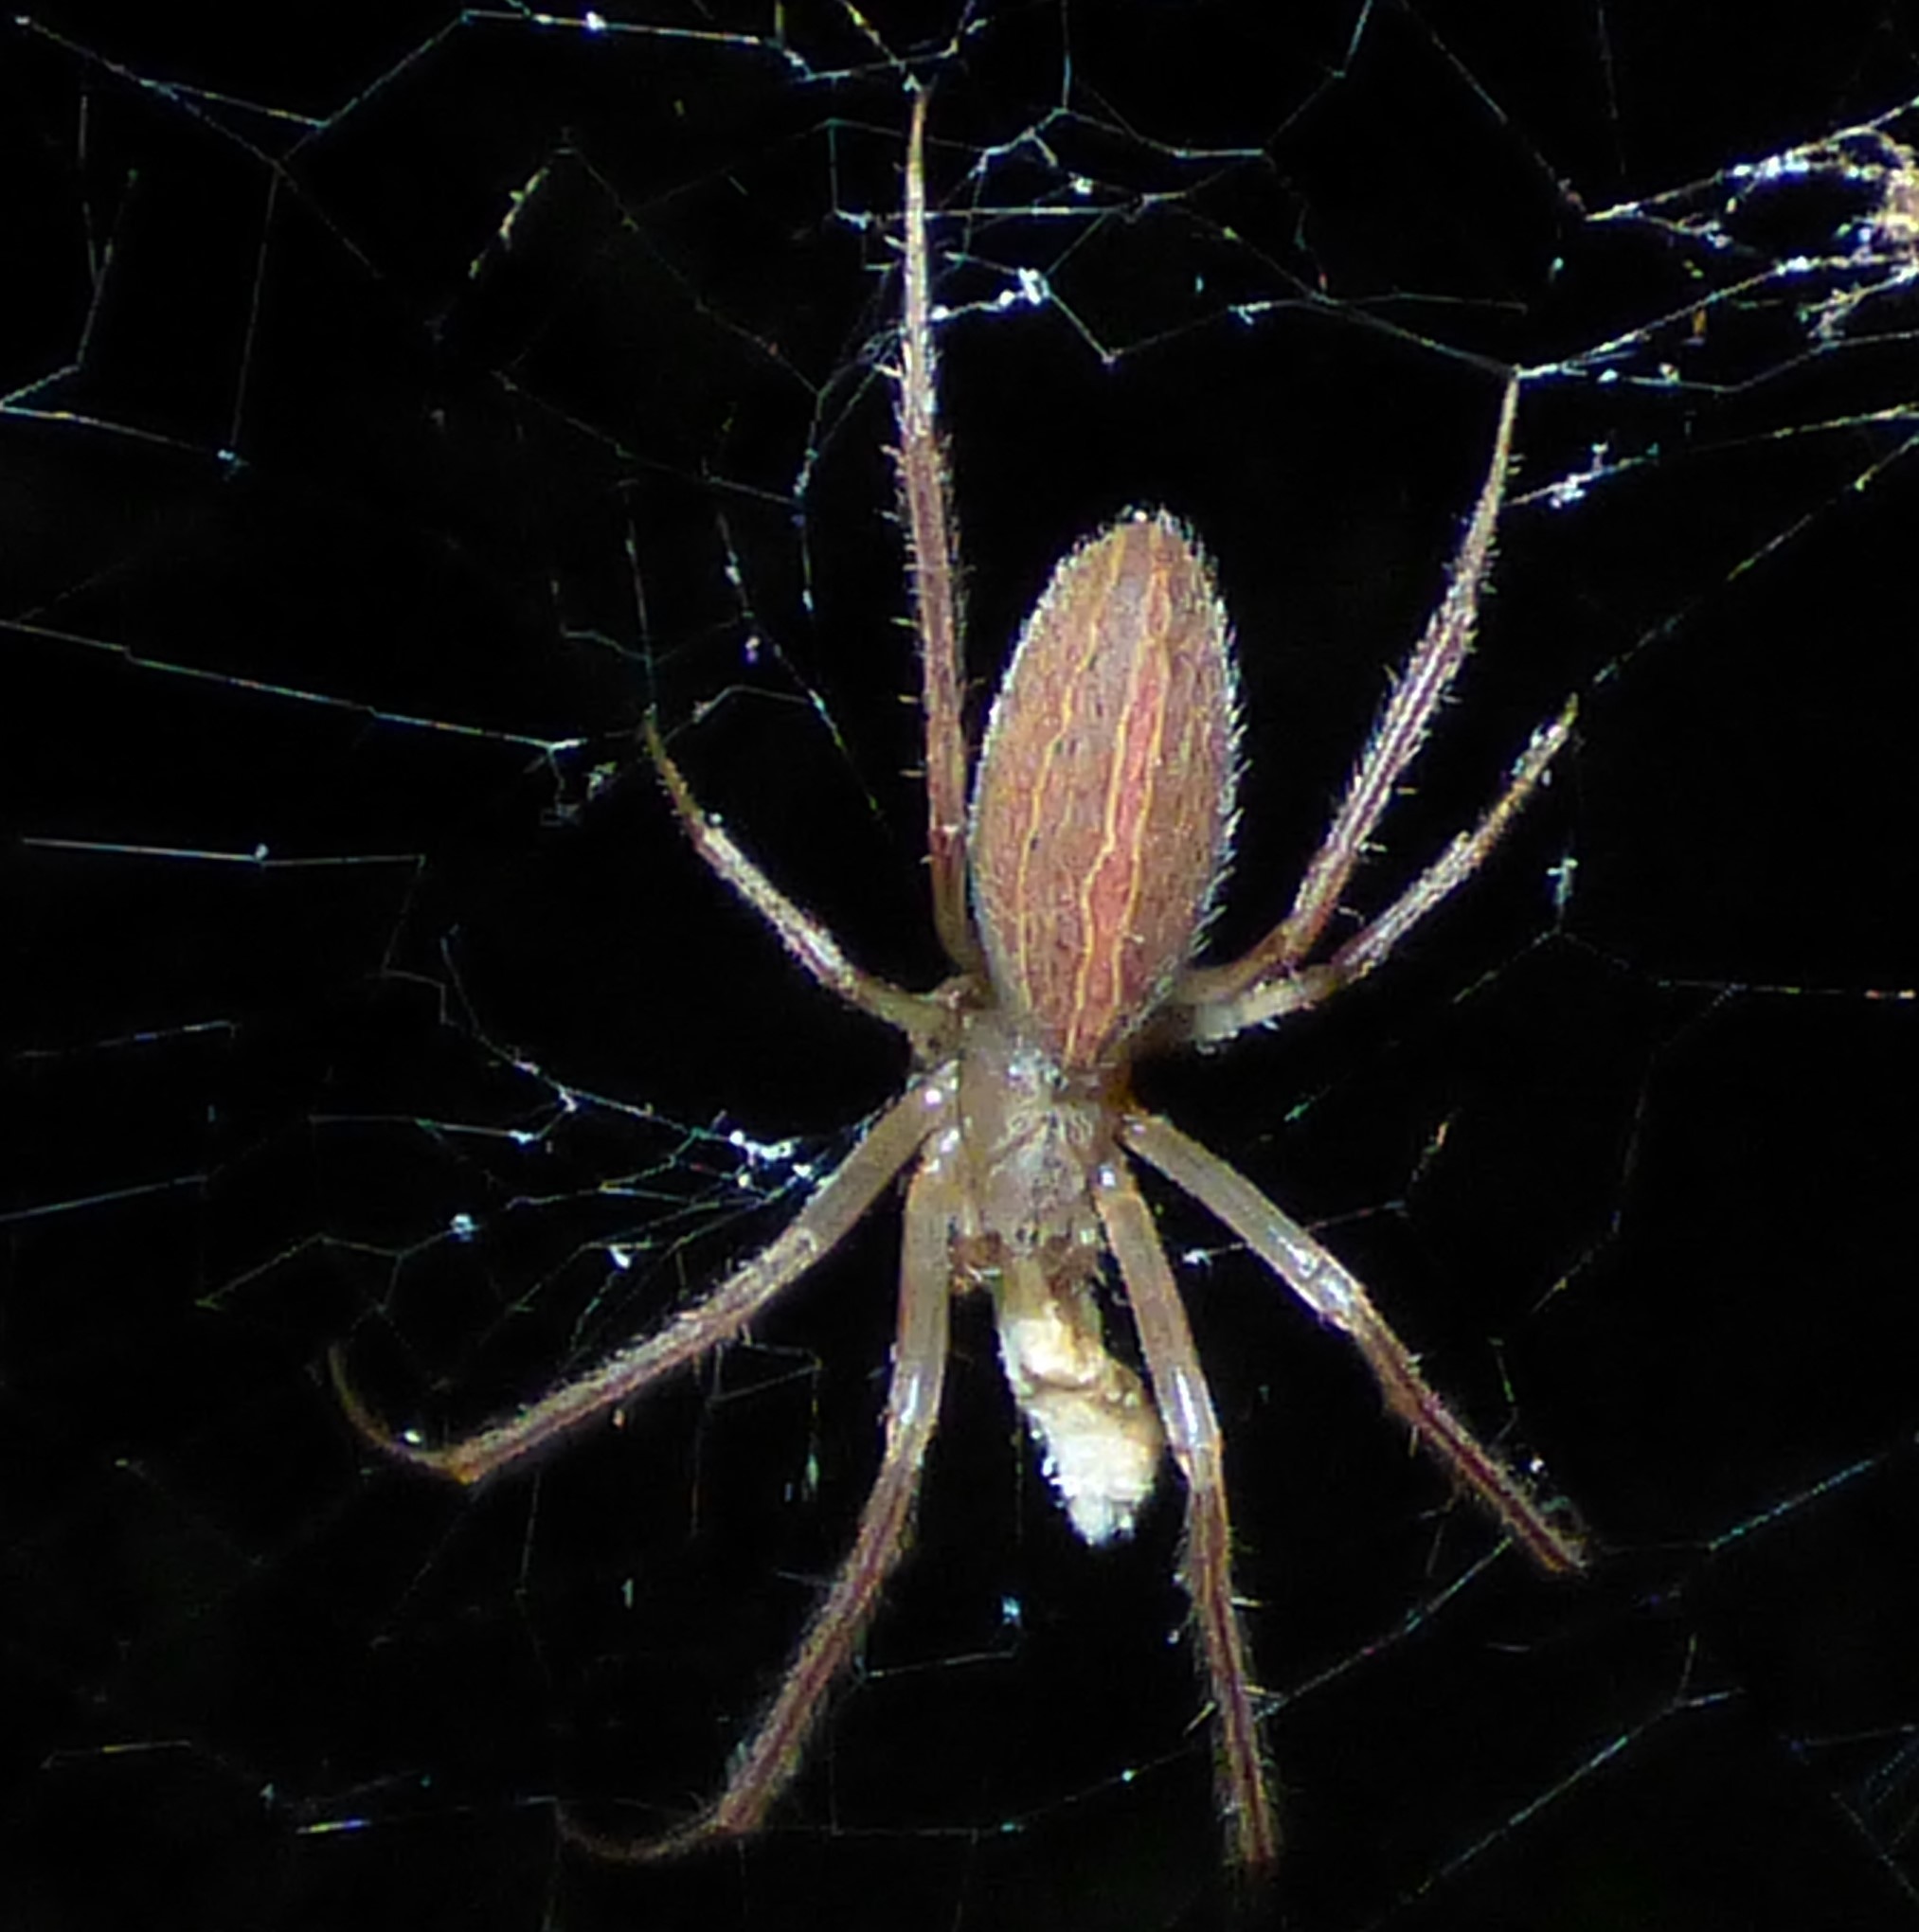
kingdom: Animalia
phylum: Arthropoda
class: Arachnida
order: Araneae
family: Araneidae
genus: Larinia
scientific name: Larinia directa
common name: Orb weavers
